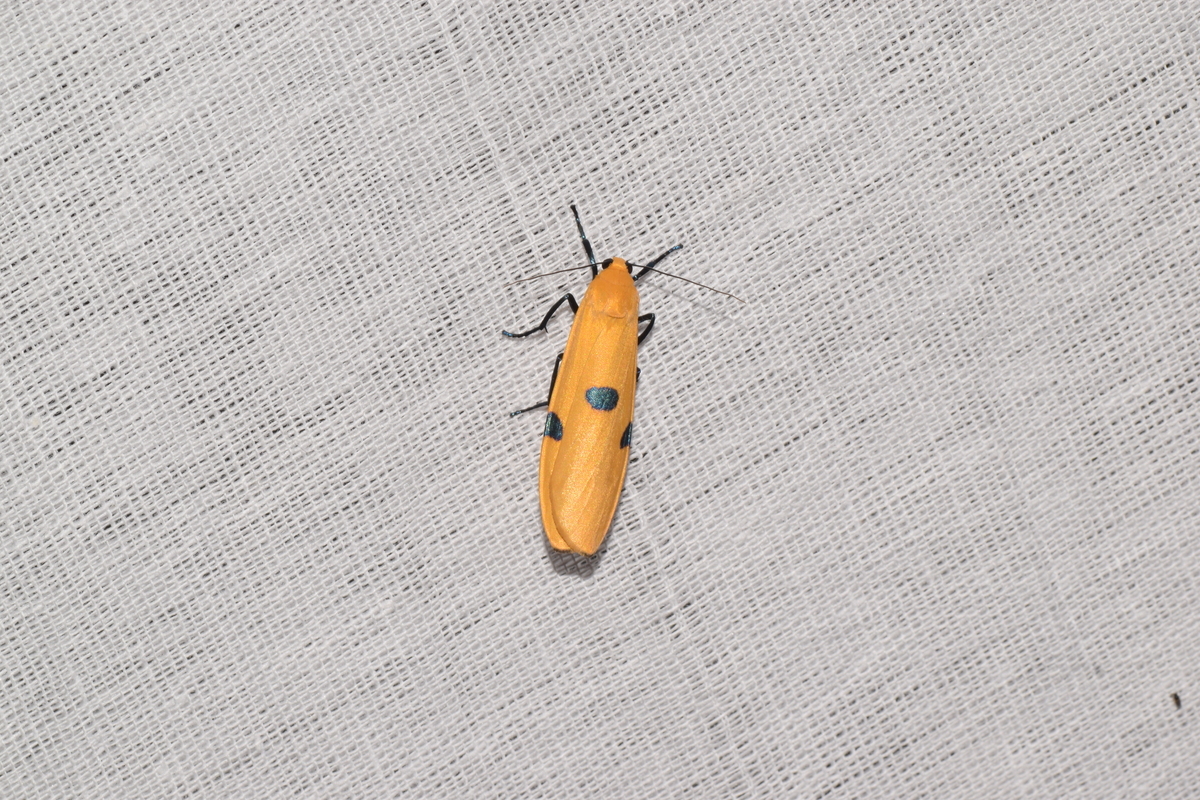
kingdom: Animalia
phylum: Arthropoda
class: Insecta
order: Lepidoptera
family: Erebidae
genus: Lithosia
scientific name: Lithosia quadra
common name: Four-spotted footman
